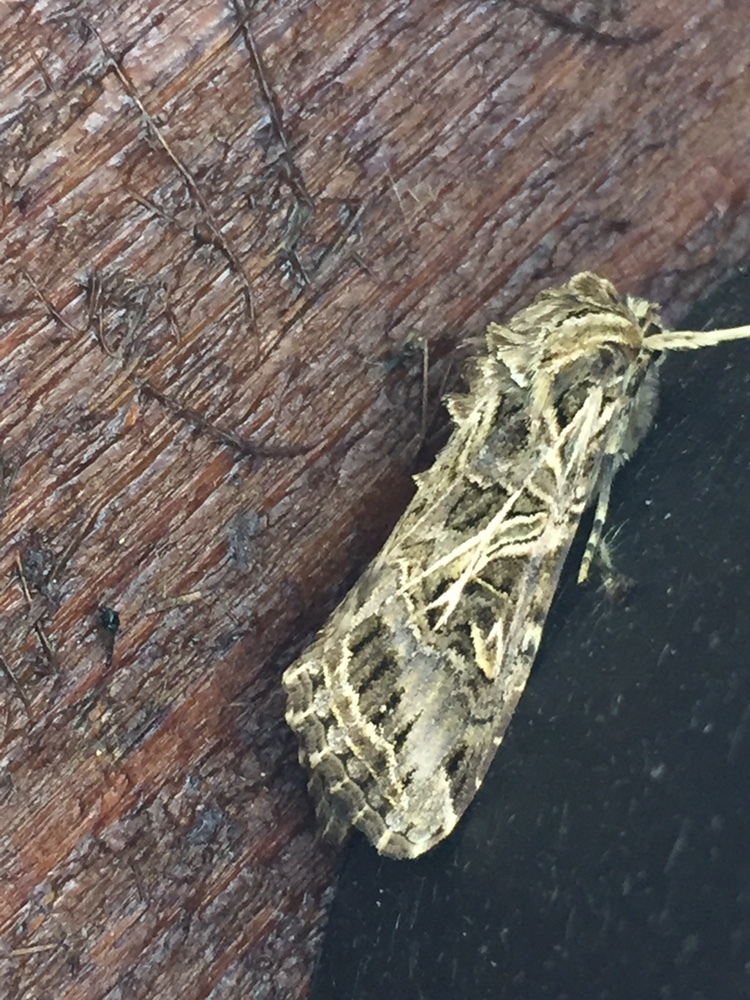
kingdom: Animalia
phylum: Arthropoda
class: Insecta
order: Lepidoptera
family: Noctuidae
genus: Spodoptera
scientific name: Spodoptera litura
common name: Asian cotton leafworm
